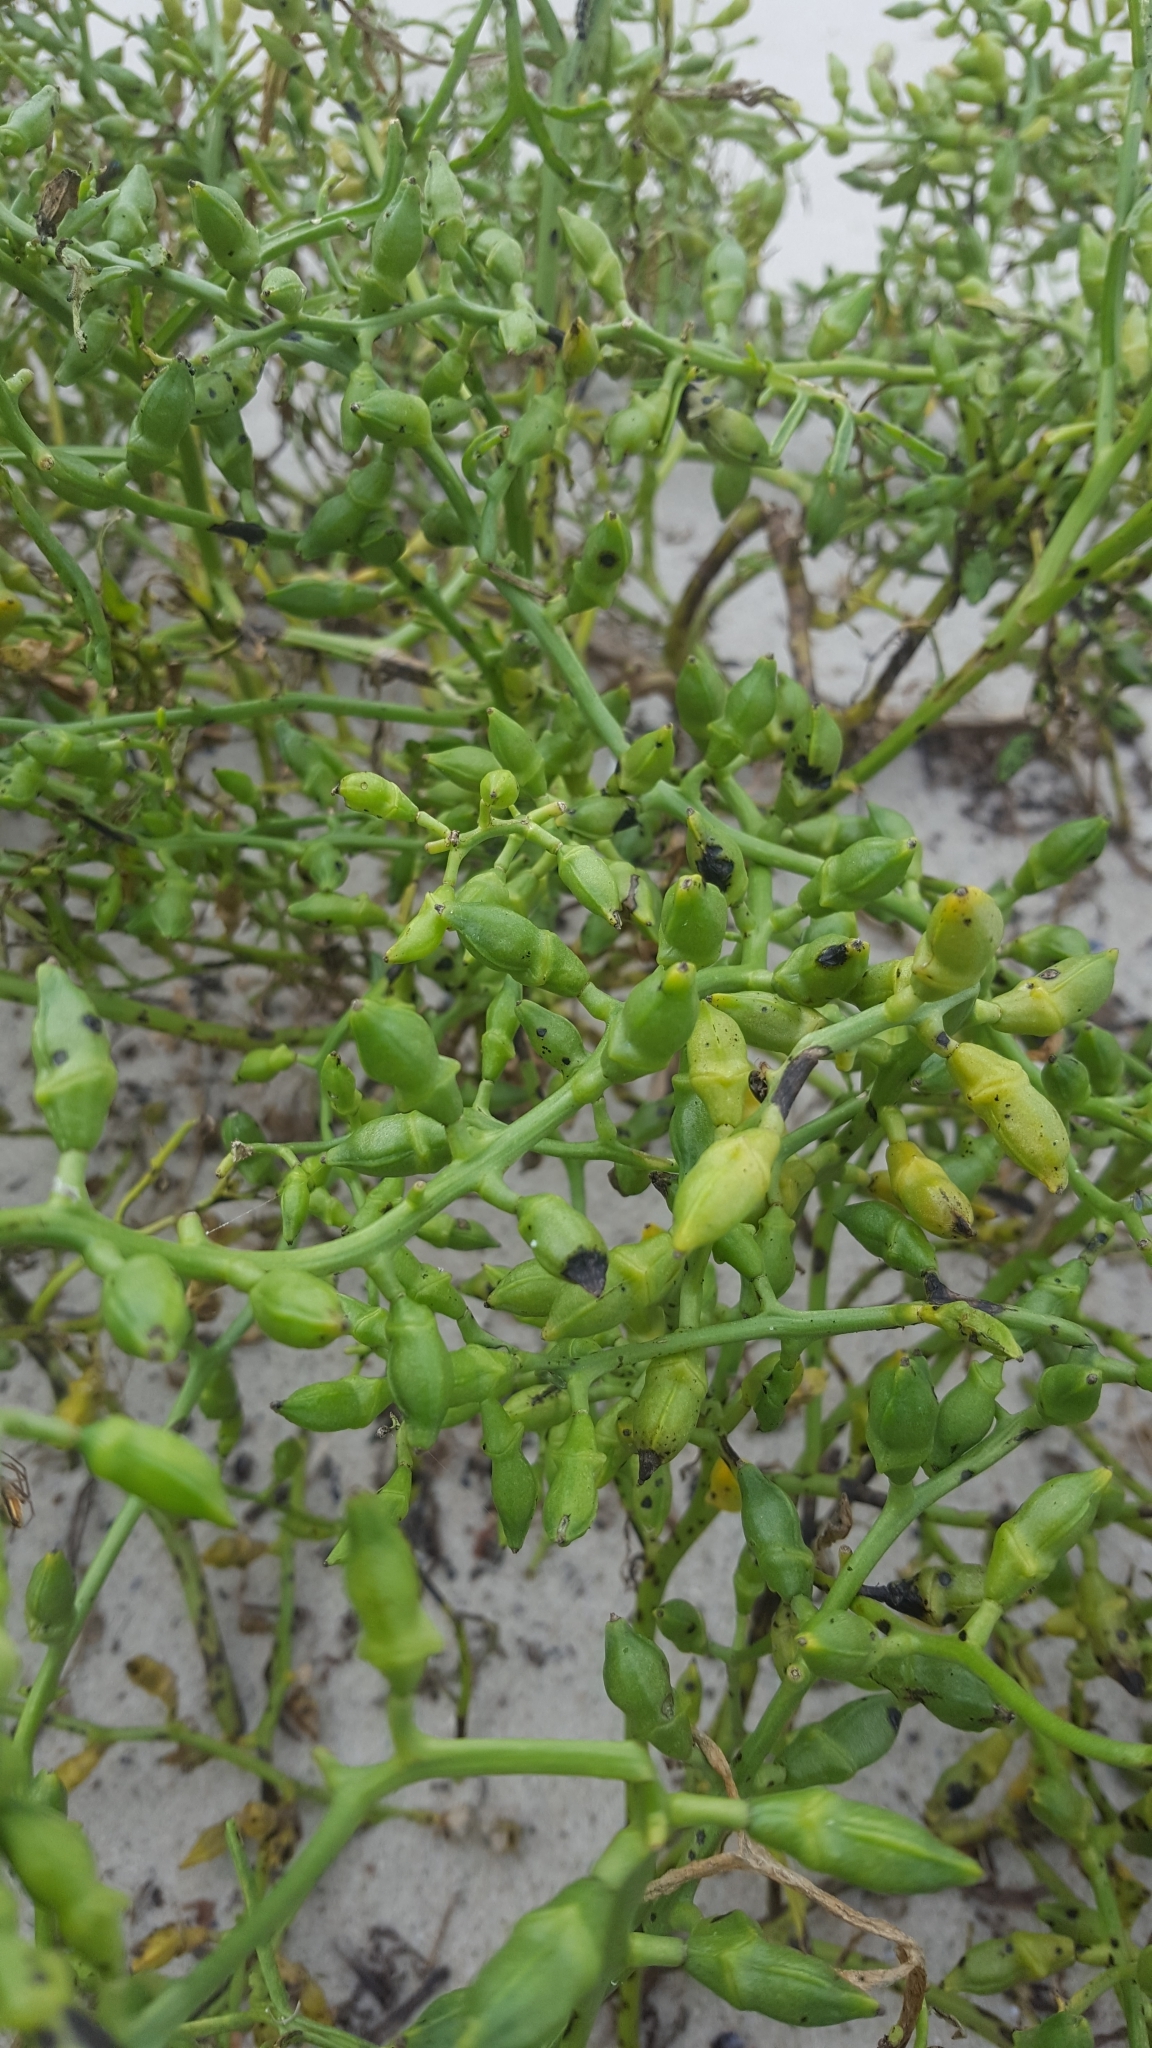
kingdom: Plantae
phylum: Tracheophyta
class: Magnoliopsida
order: Brassicales
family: Brassicaceae
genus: Cakile
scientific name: Cakile maritima
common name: Sea rocket
